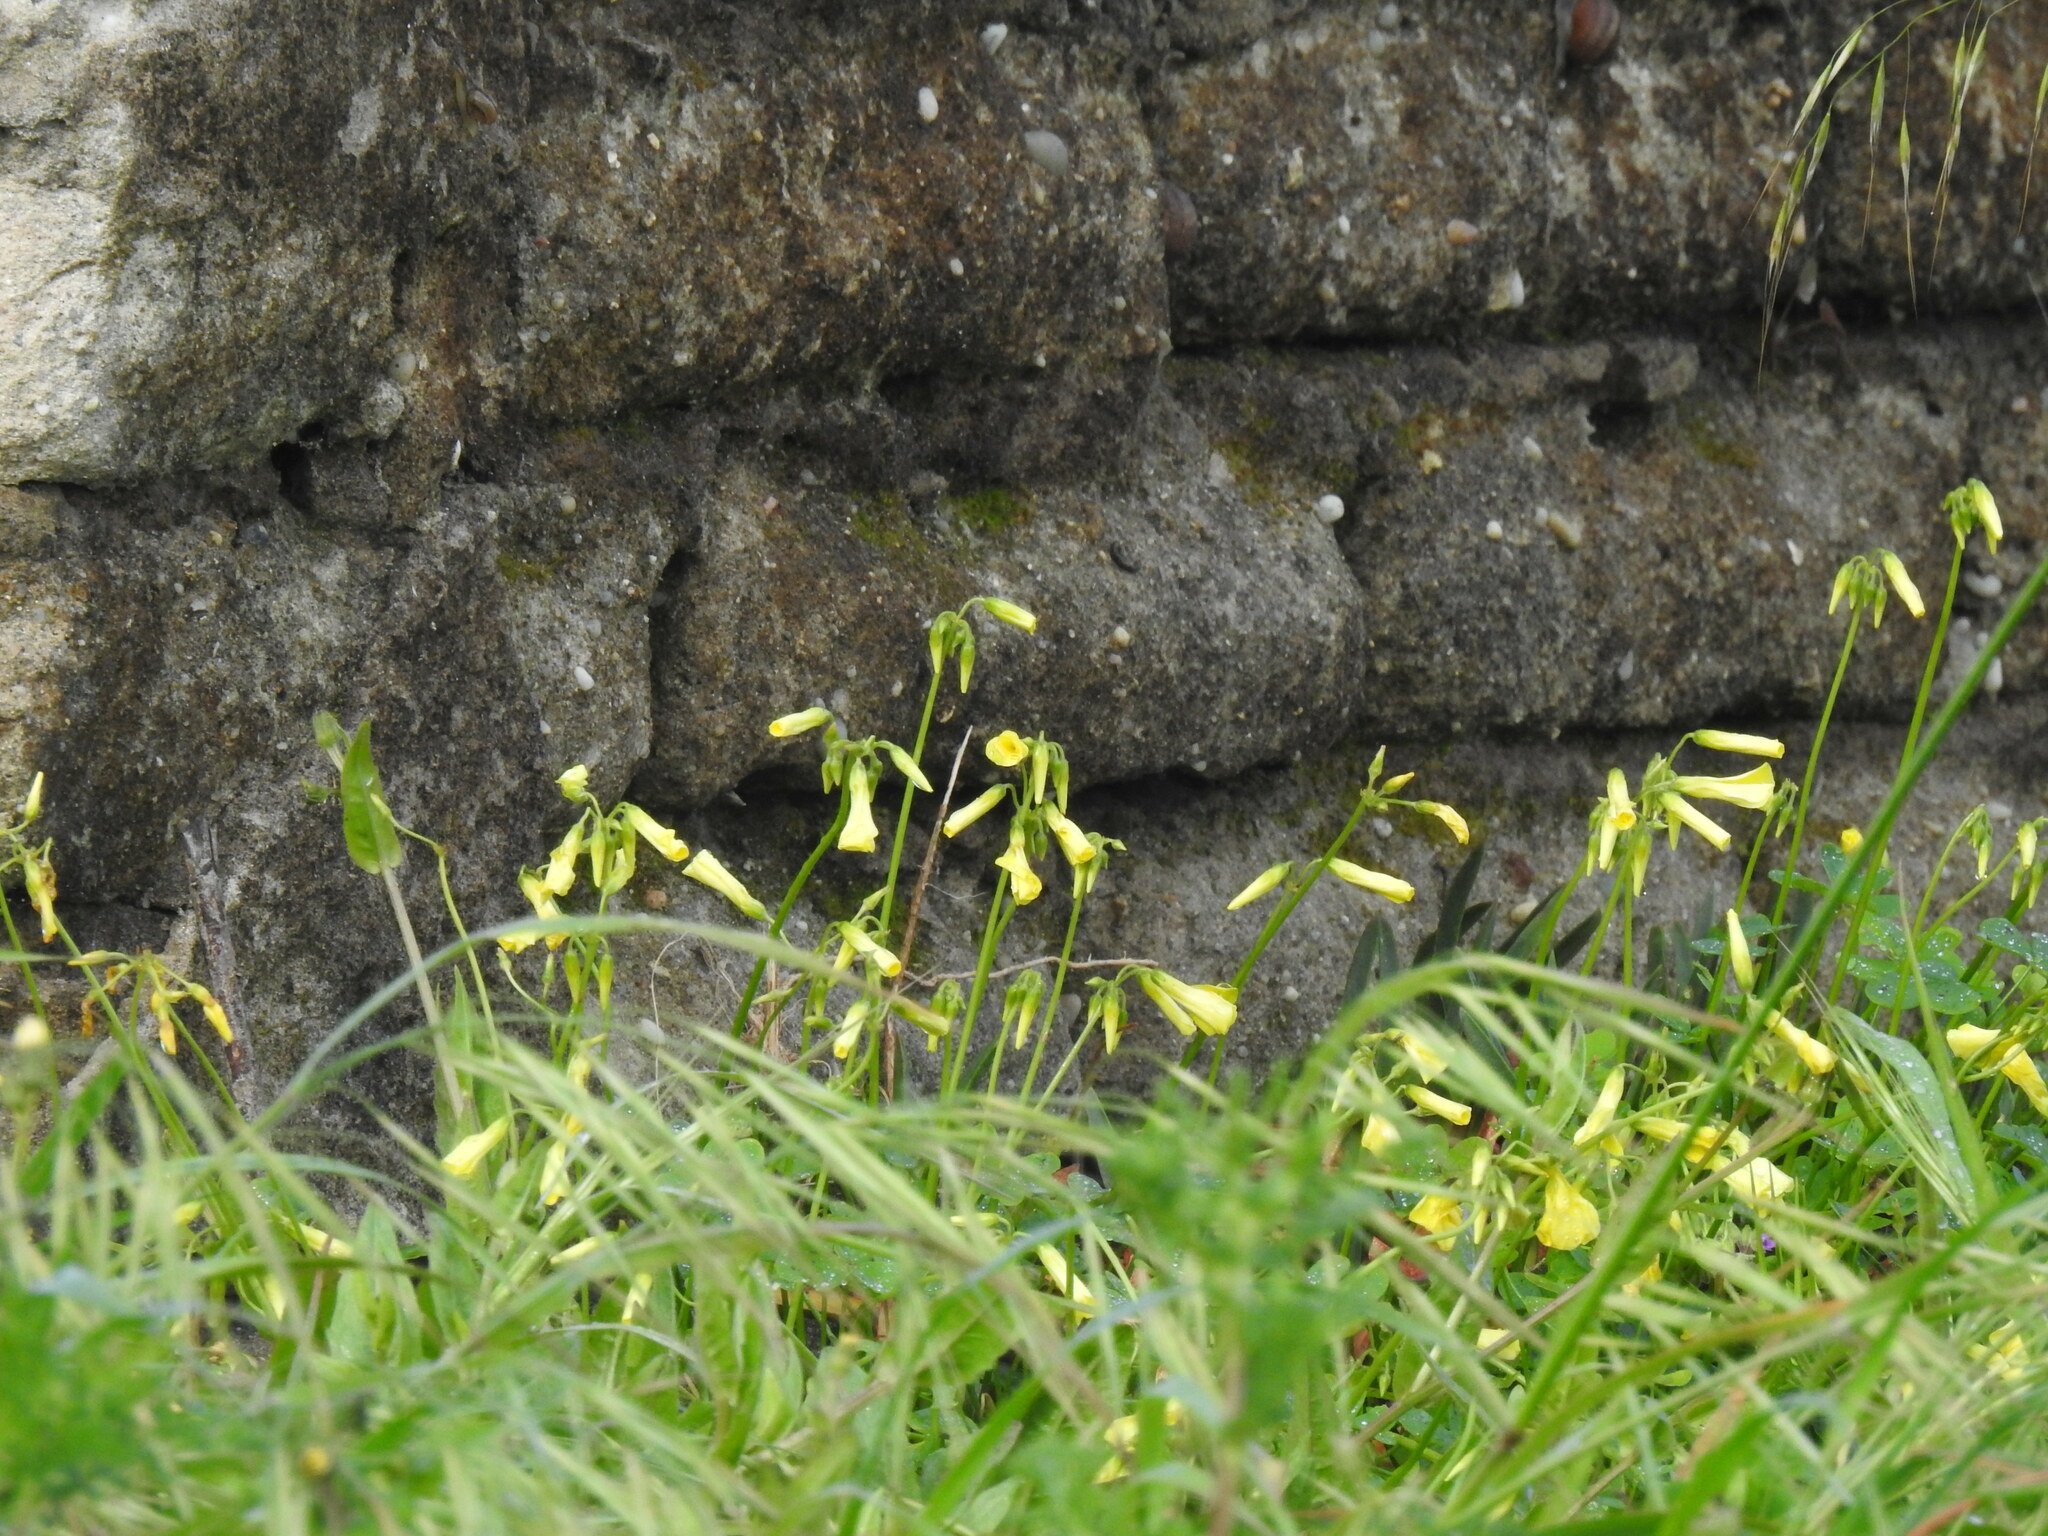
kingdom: Plantae
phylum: Tracheophyta
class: Magnoliopsida
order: Oxalidales
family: Oxalidaceae
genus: Oxalis
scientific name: Oxalis pes-caprae
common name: Bermuda-buttercup
